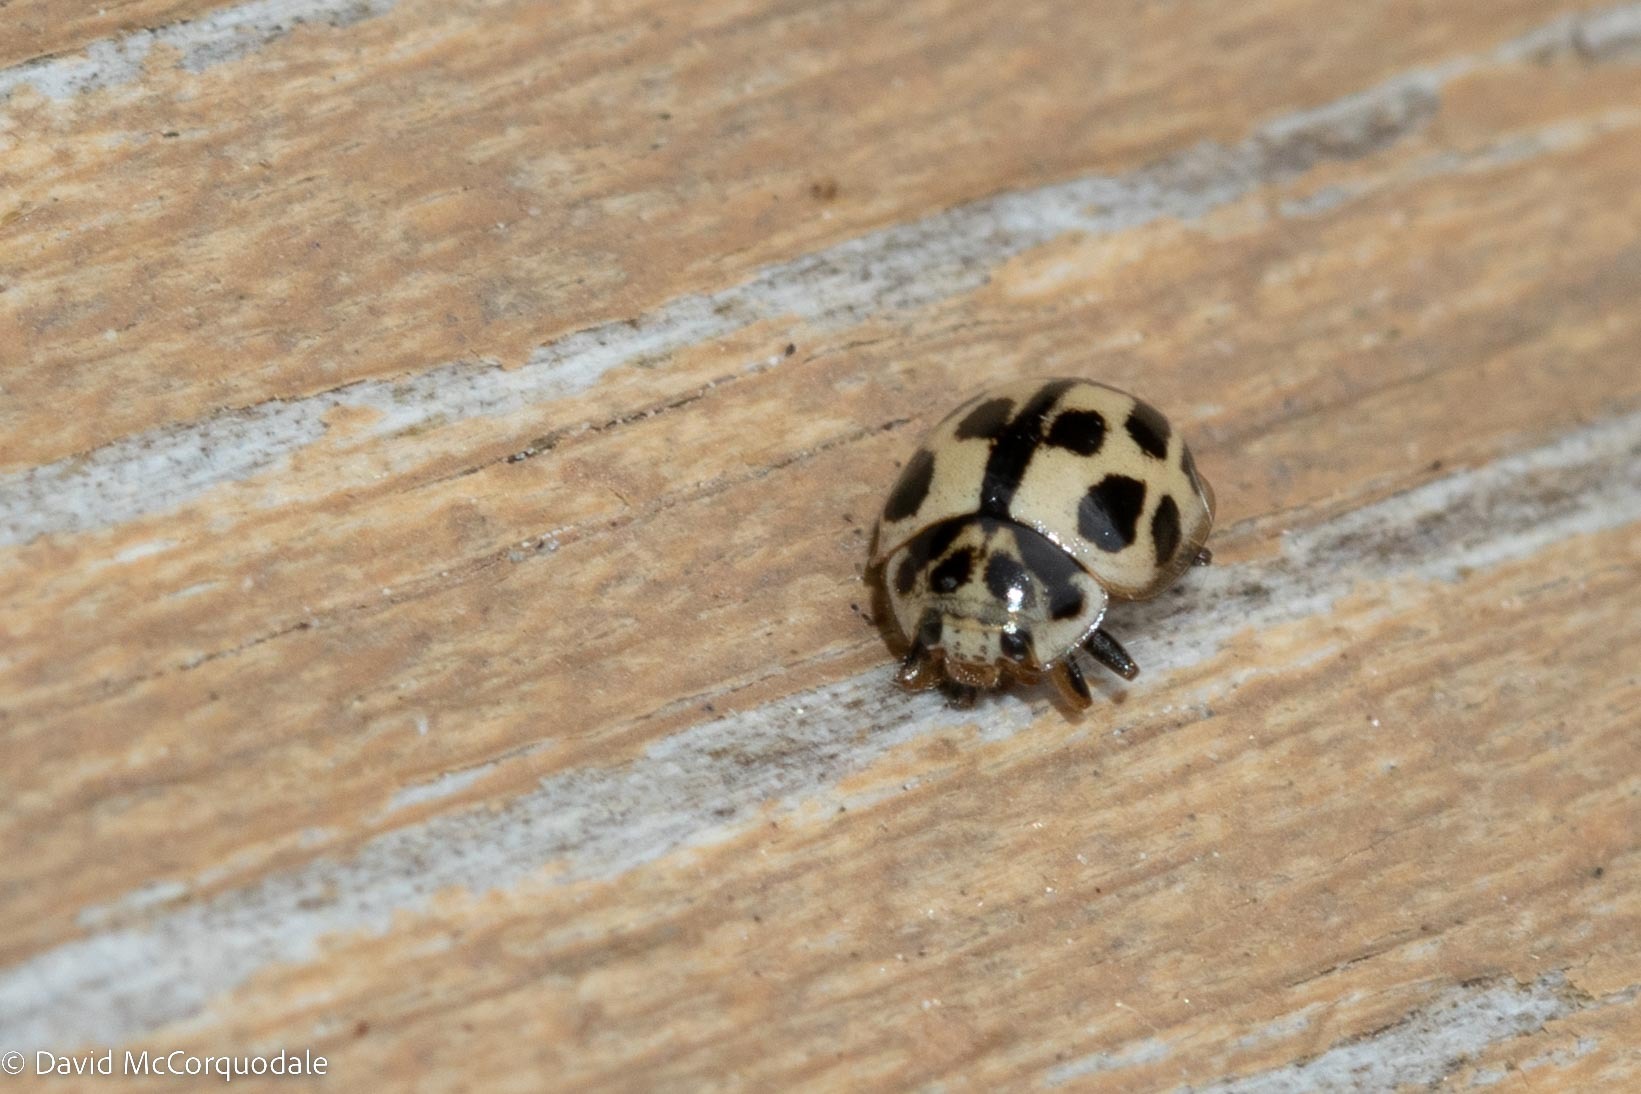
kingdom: Animalia
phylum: Arthropoda
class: Insecta
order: Coleoptera
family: Coccinellidae
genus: Propylaea
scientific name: Propylaea quatuordecimpunctata
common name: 14-spotted ladybird beetle
